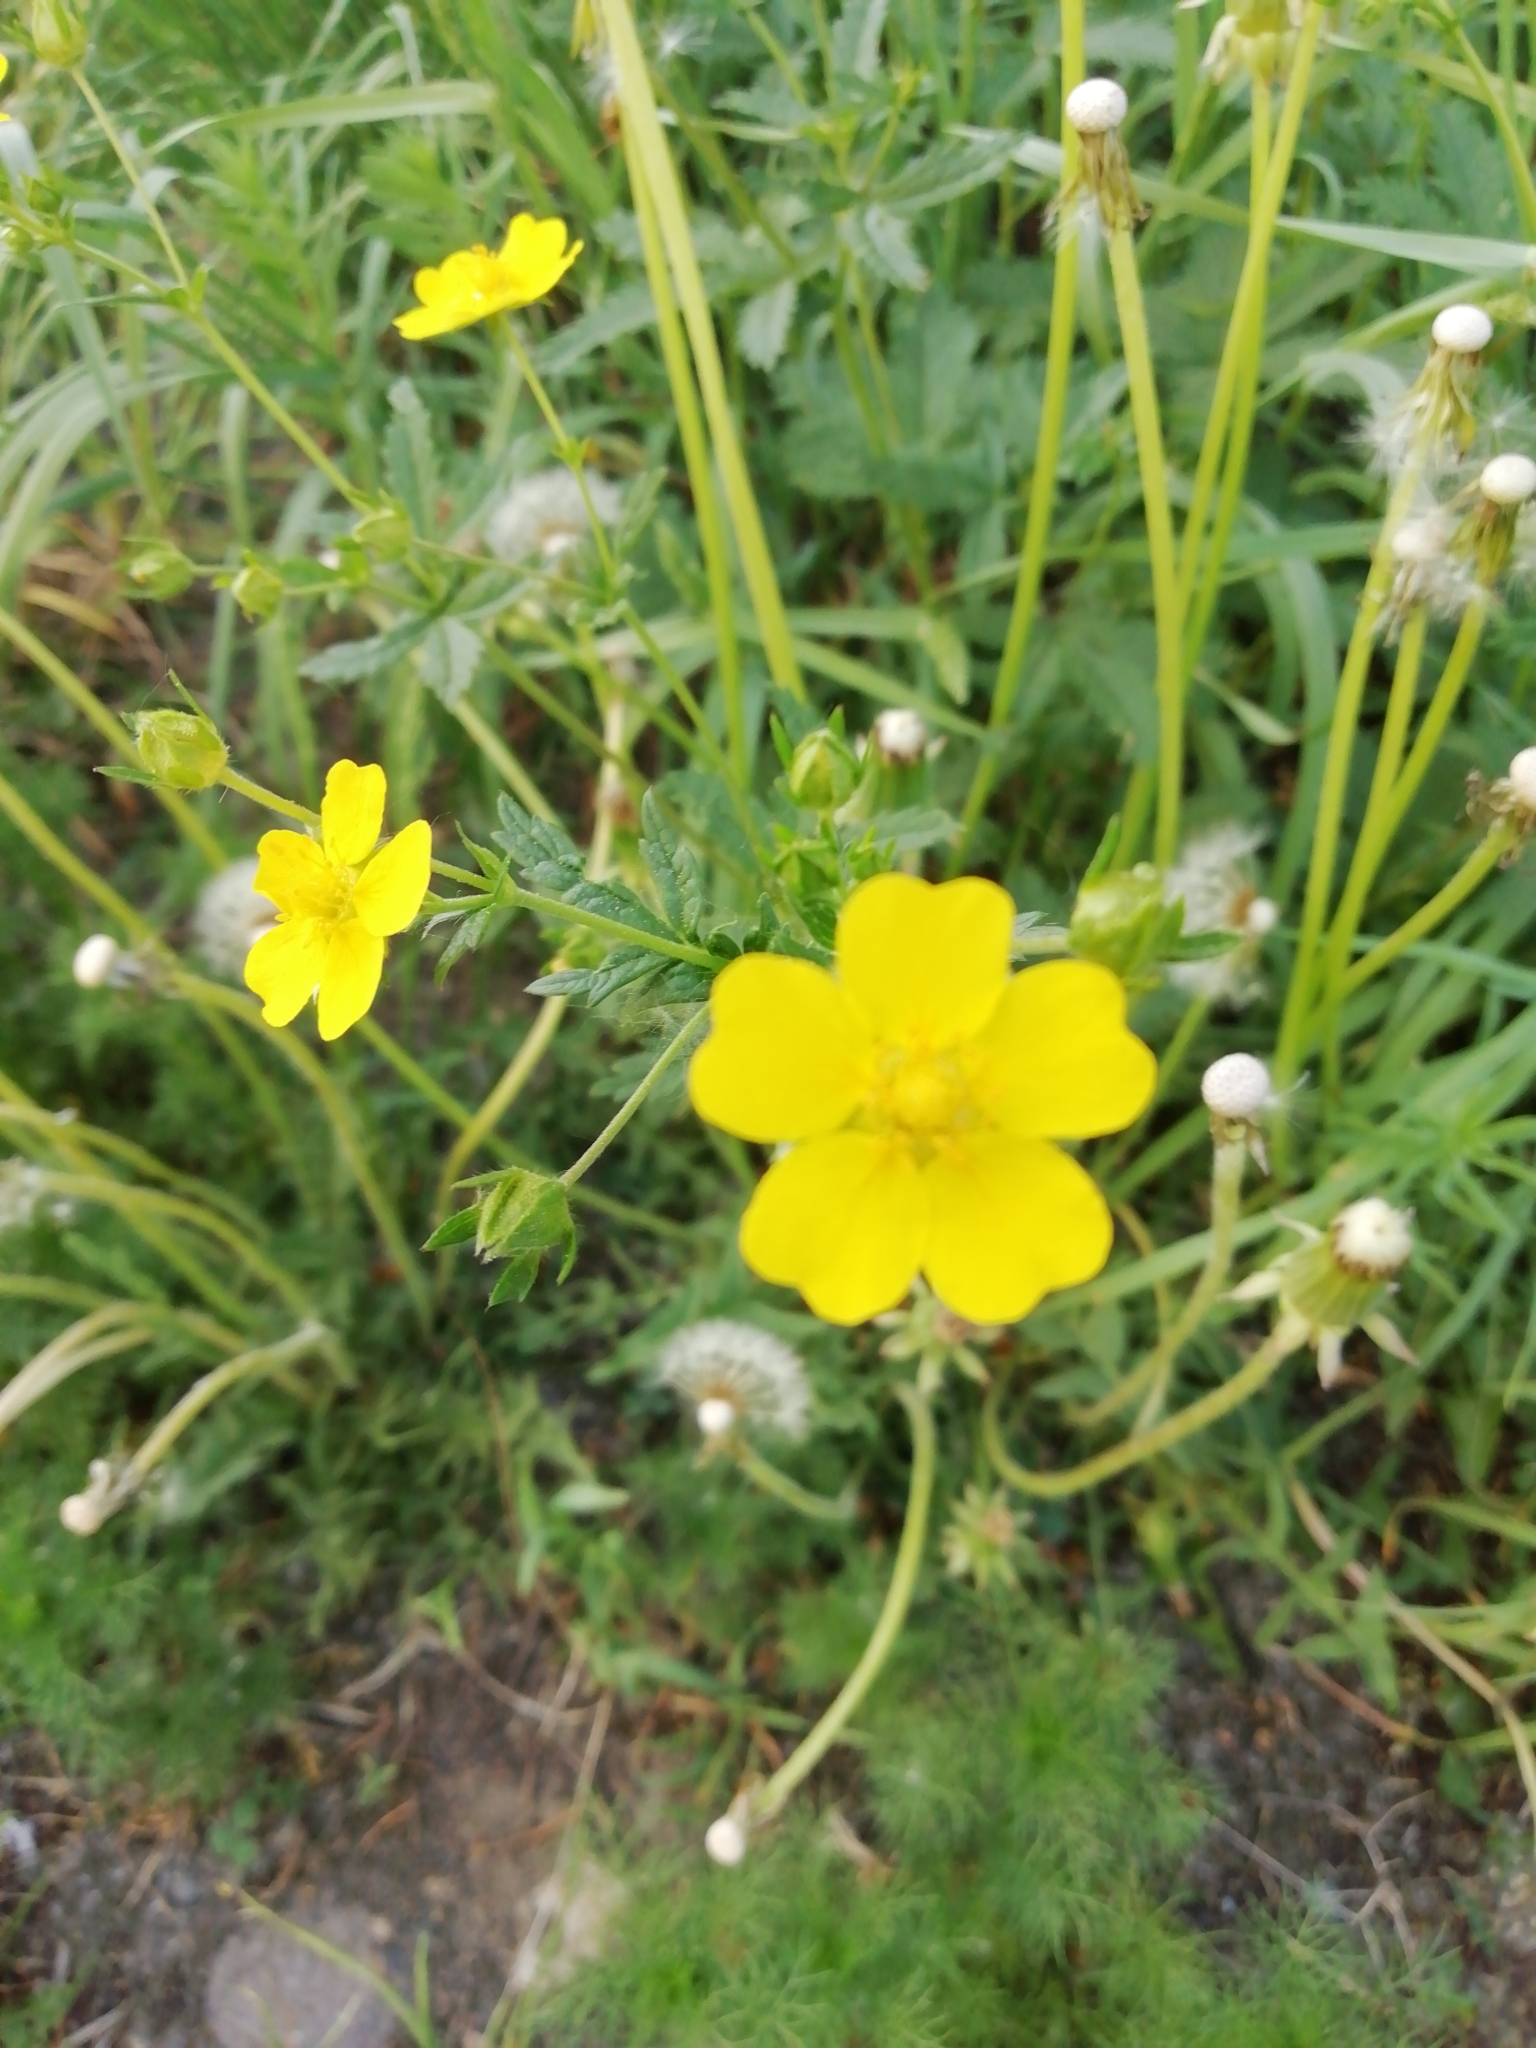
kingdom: Plantae
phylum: Tracheophyta
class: Magnoliopsida
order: Rosales
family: Rosaceae
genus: Potentilla
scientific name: Potentilla chrysantha
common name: Thuringian cinquefoil
